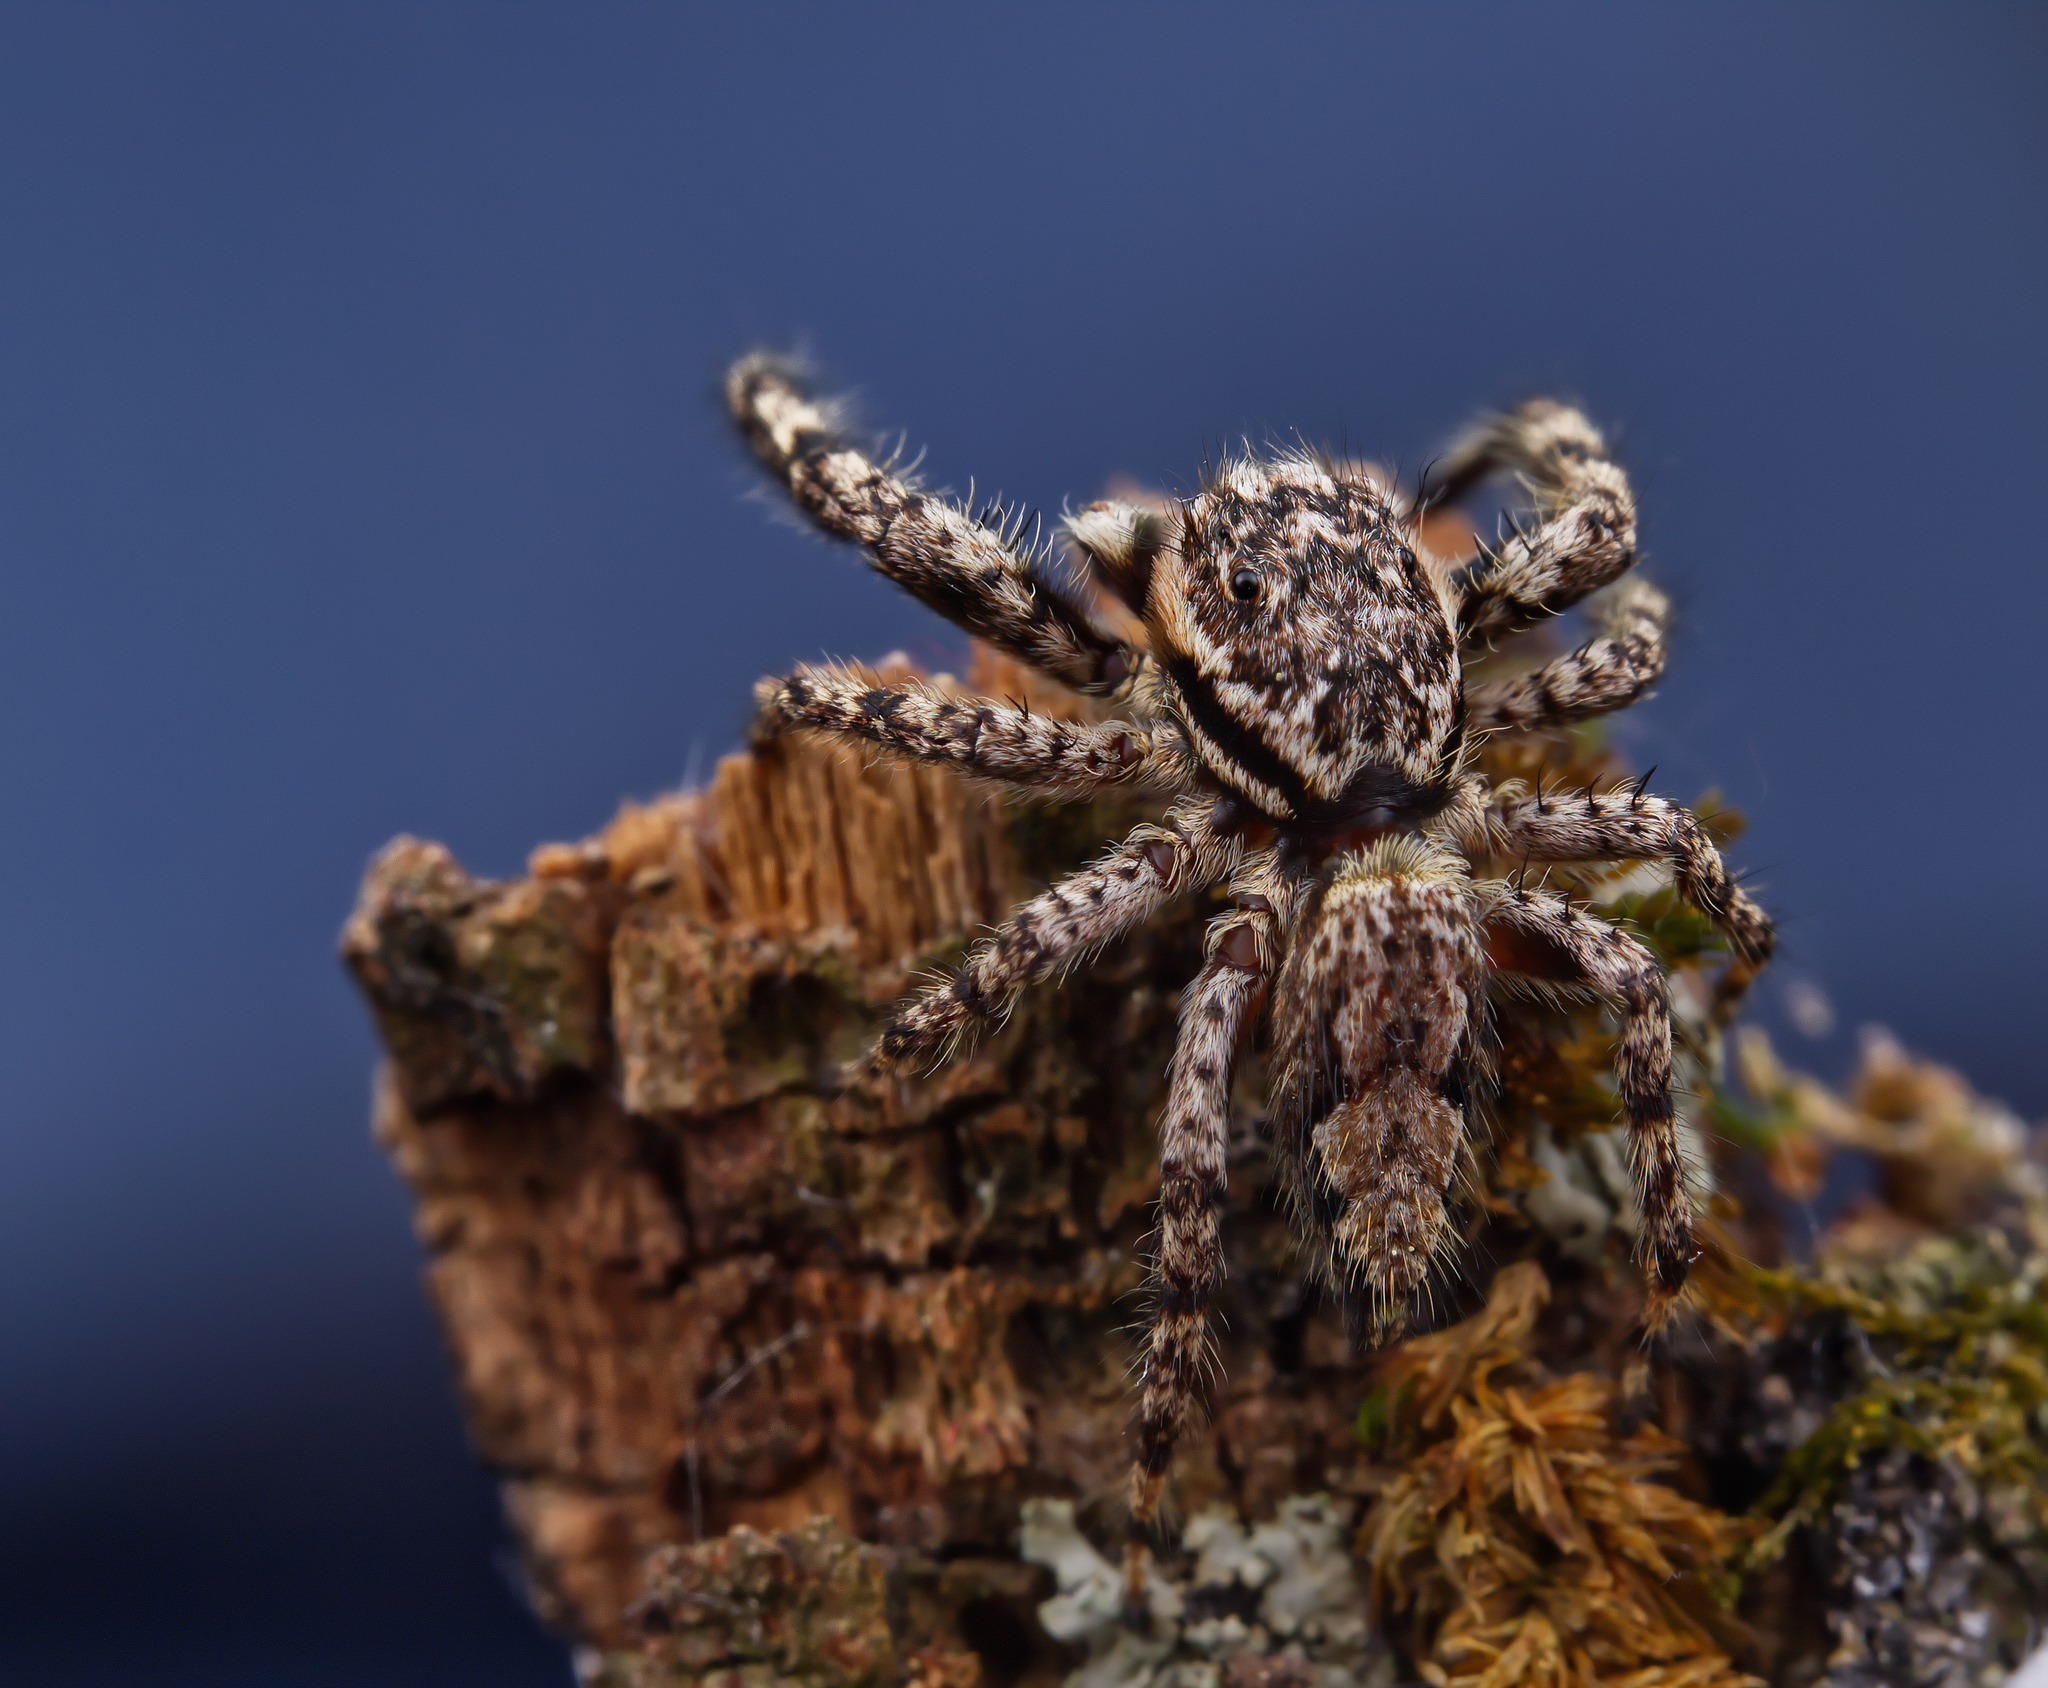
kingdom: Animalia
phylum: Arthropoda
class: Arachnida
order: Araneae
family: Salticidae
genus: Platycryptus
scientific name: Platycryptus undatus
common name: Tan jumping spider
